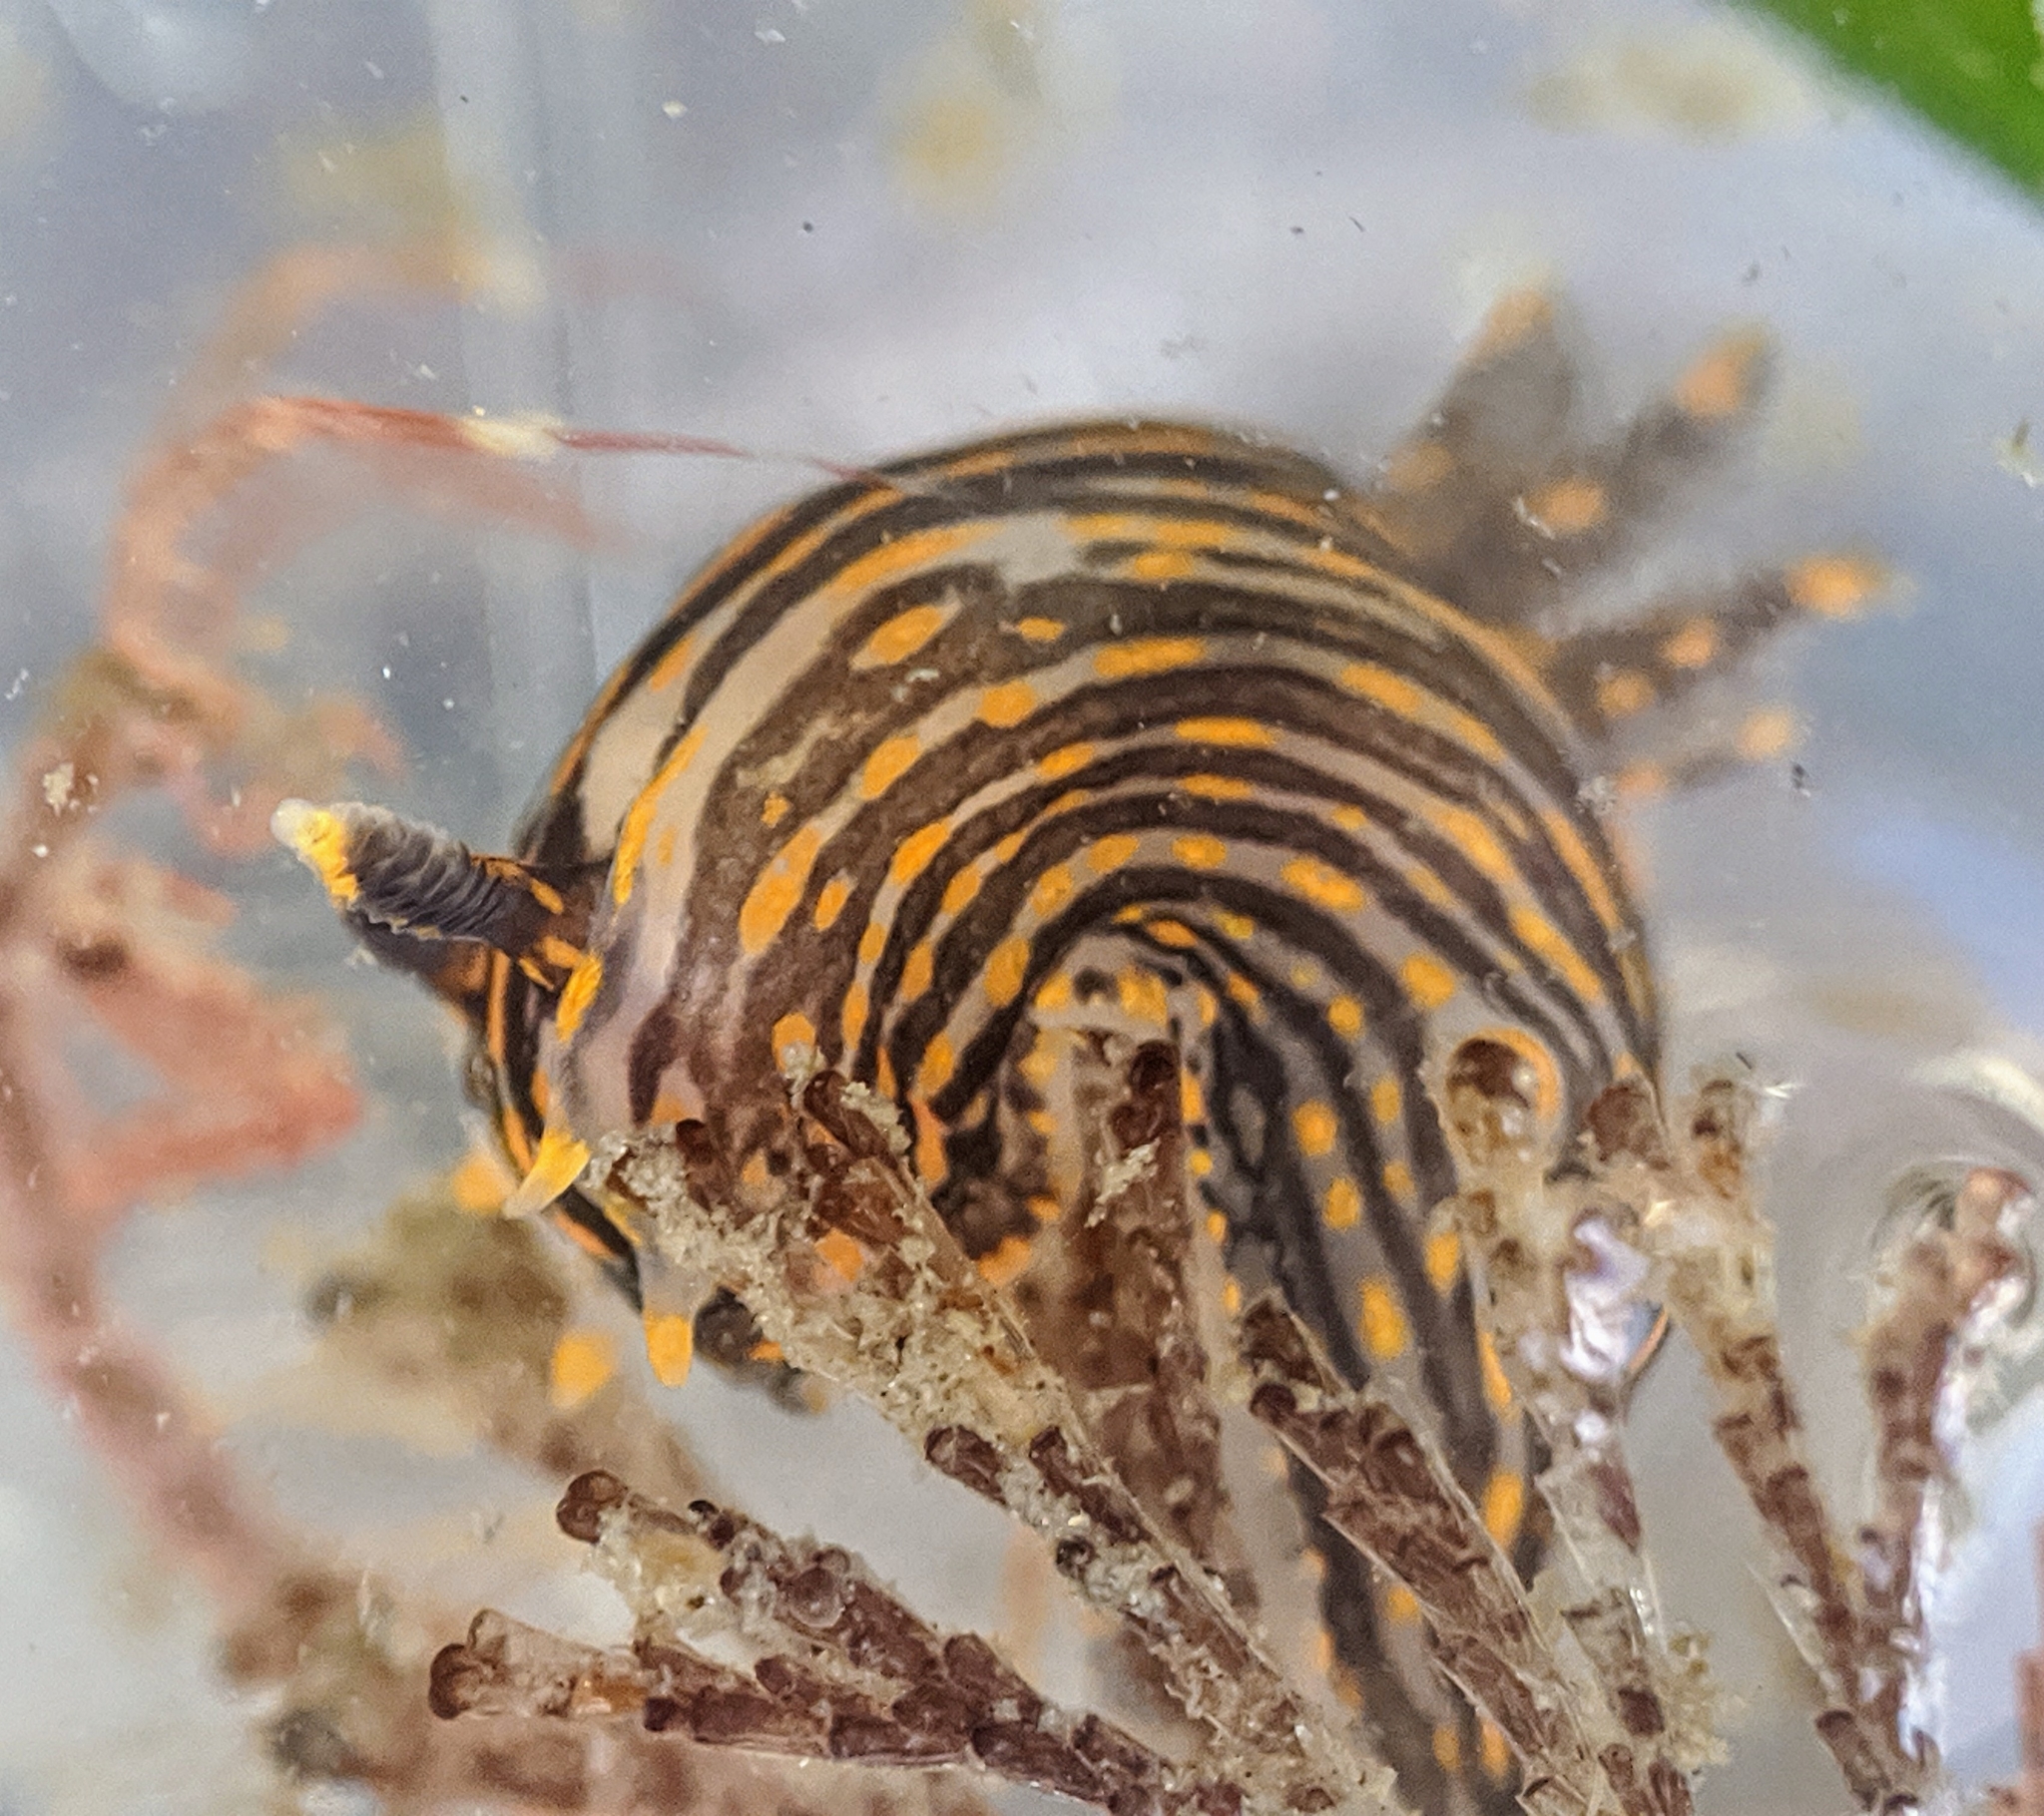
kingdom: Animalia
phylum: Mollusca
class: Gastropoda
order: Nudibranchia
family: Polyceridae
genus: Polycera
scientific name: Polycera atra
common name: Orange-spike polycera
